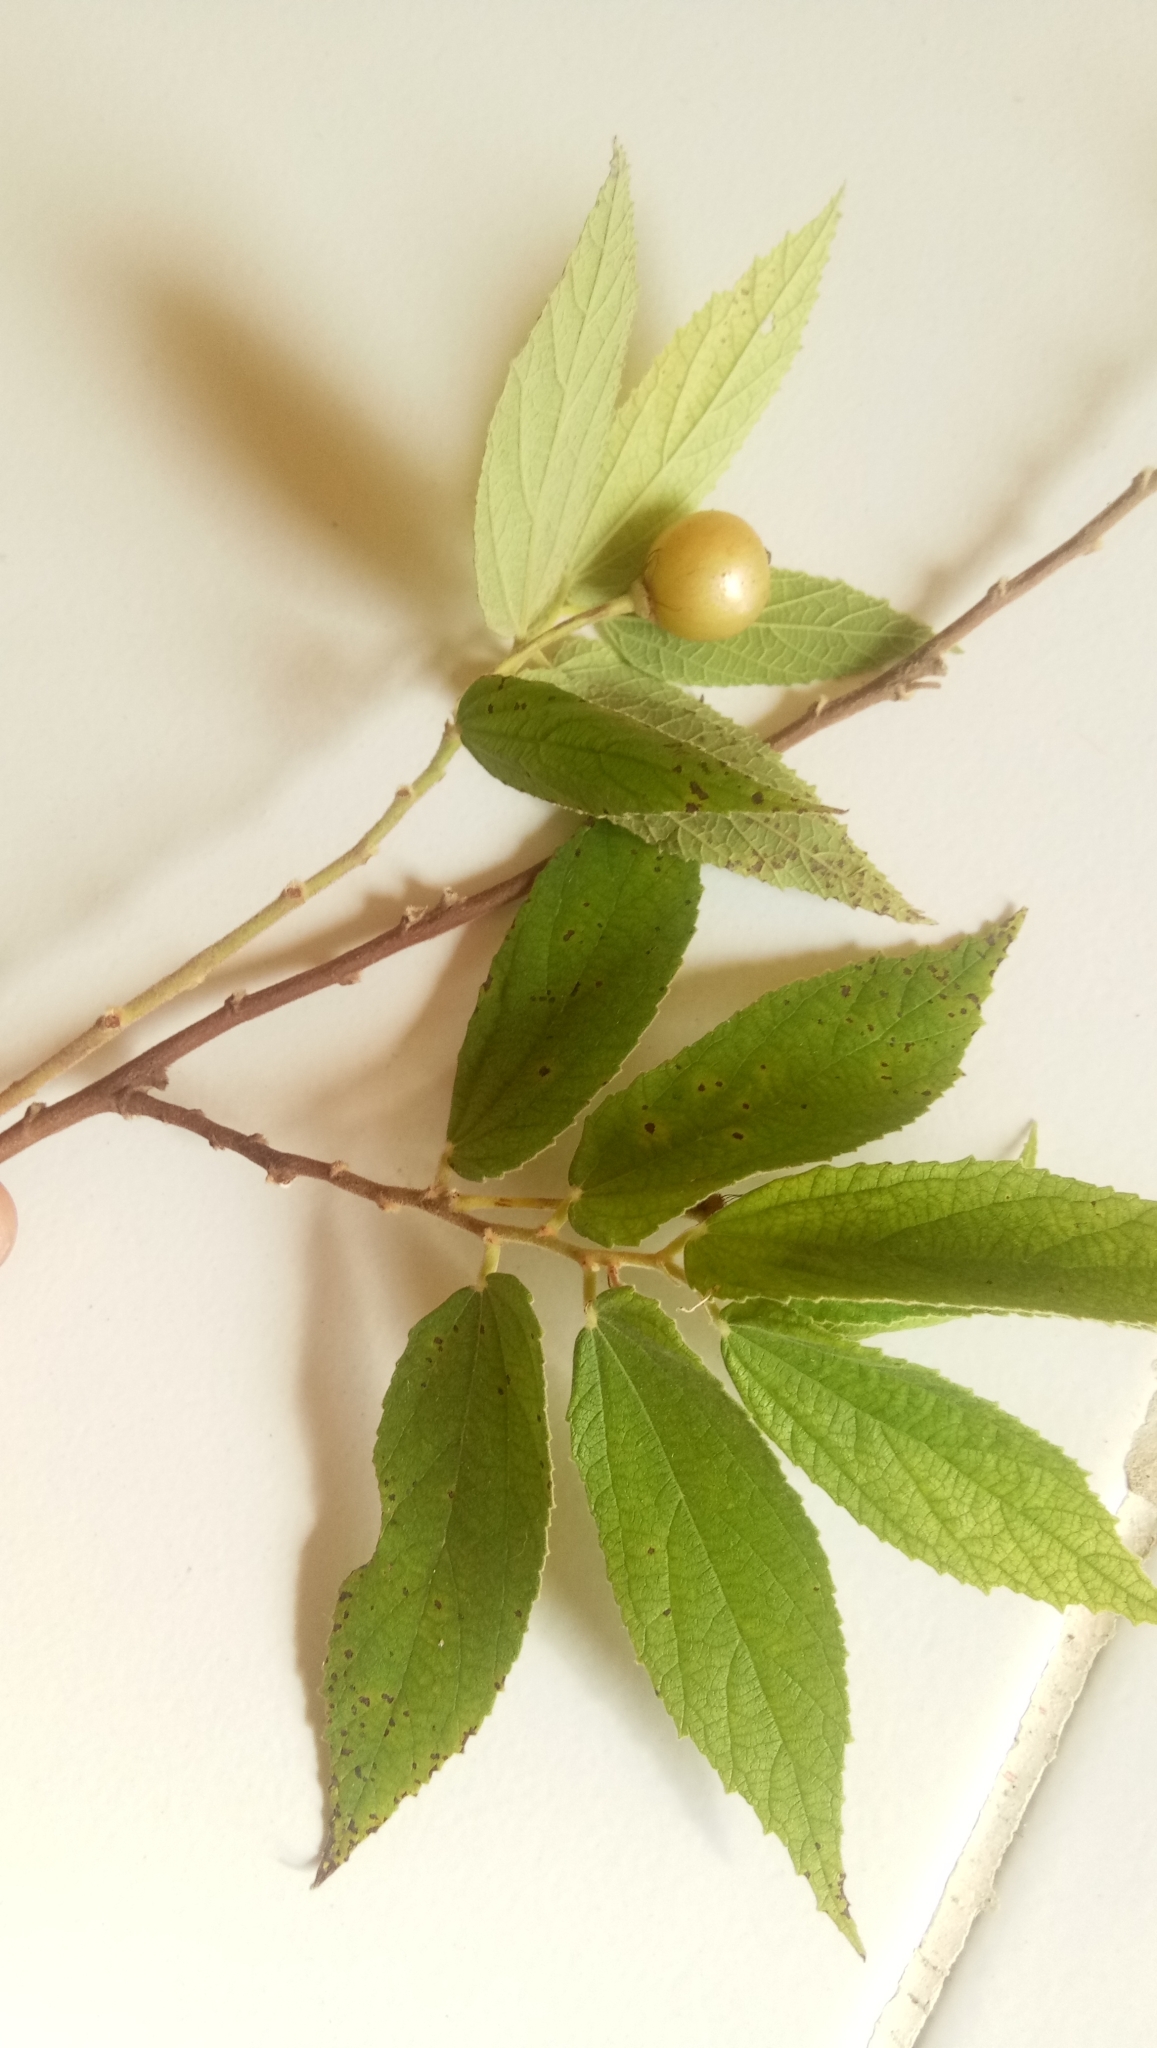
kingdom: Plantae
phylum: Tracheophyta
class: Magnoliopsida
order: Malvales
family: Muntingiaceae
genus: Muntingia
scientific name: Muntingia calabura
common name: Strawberrytree
